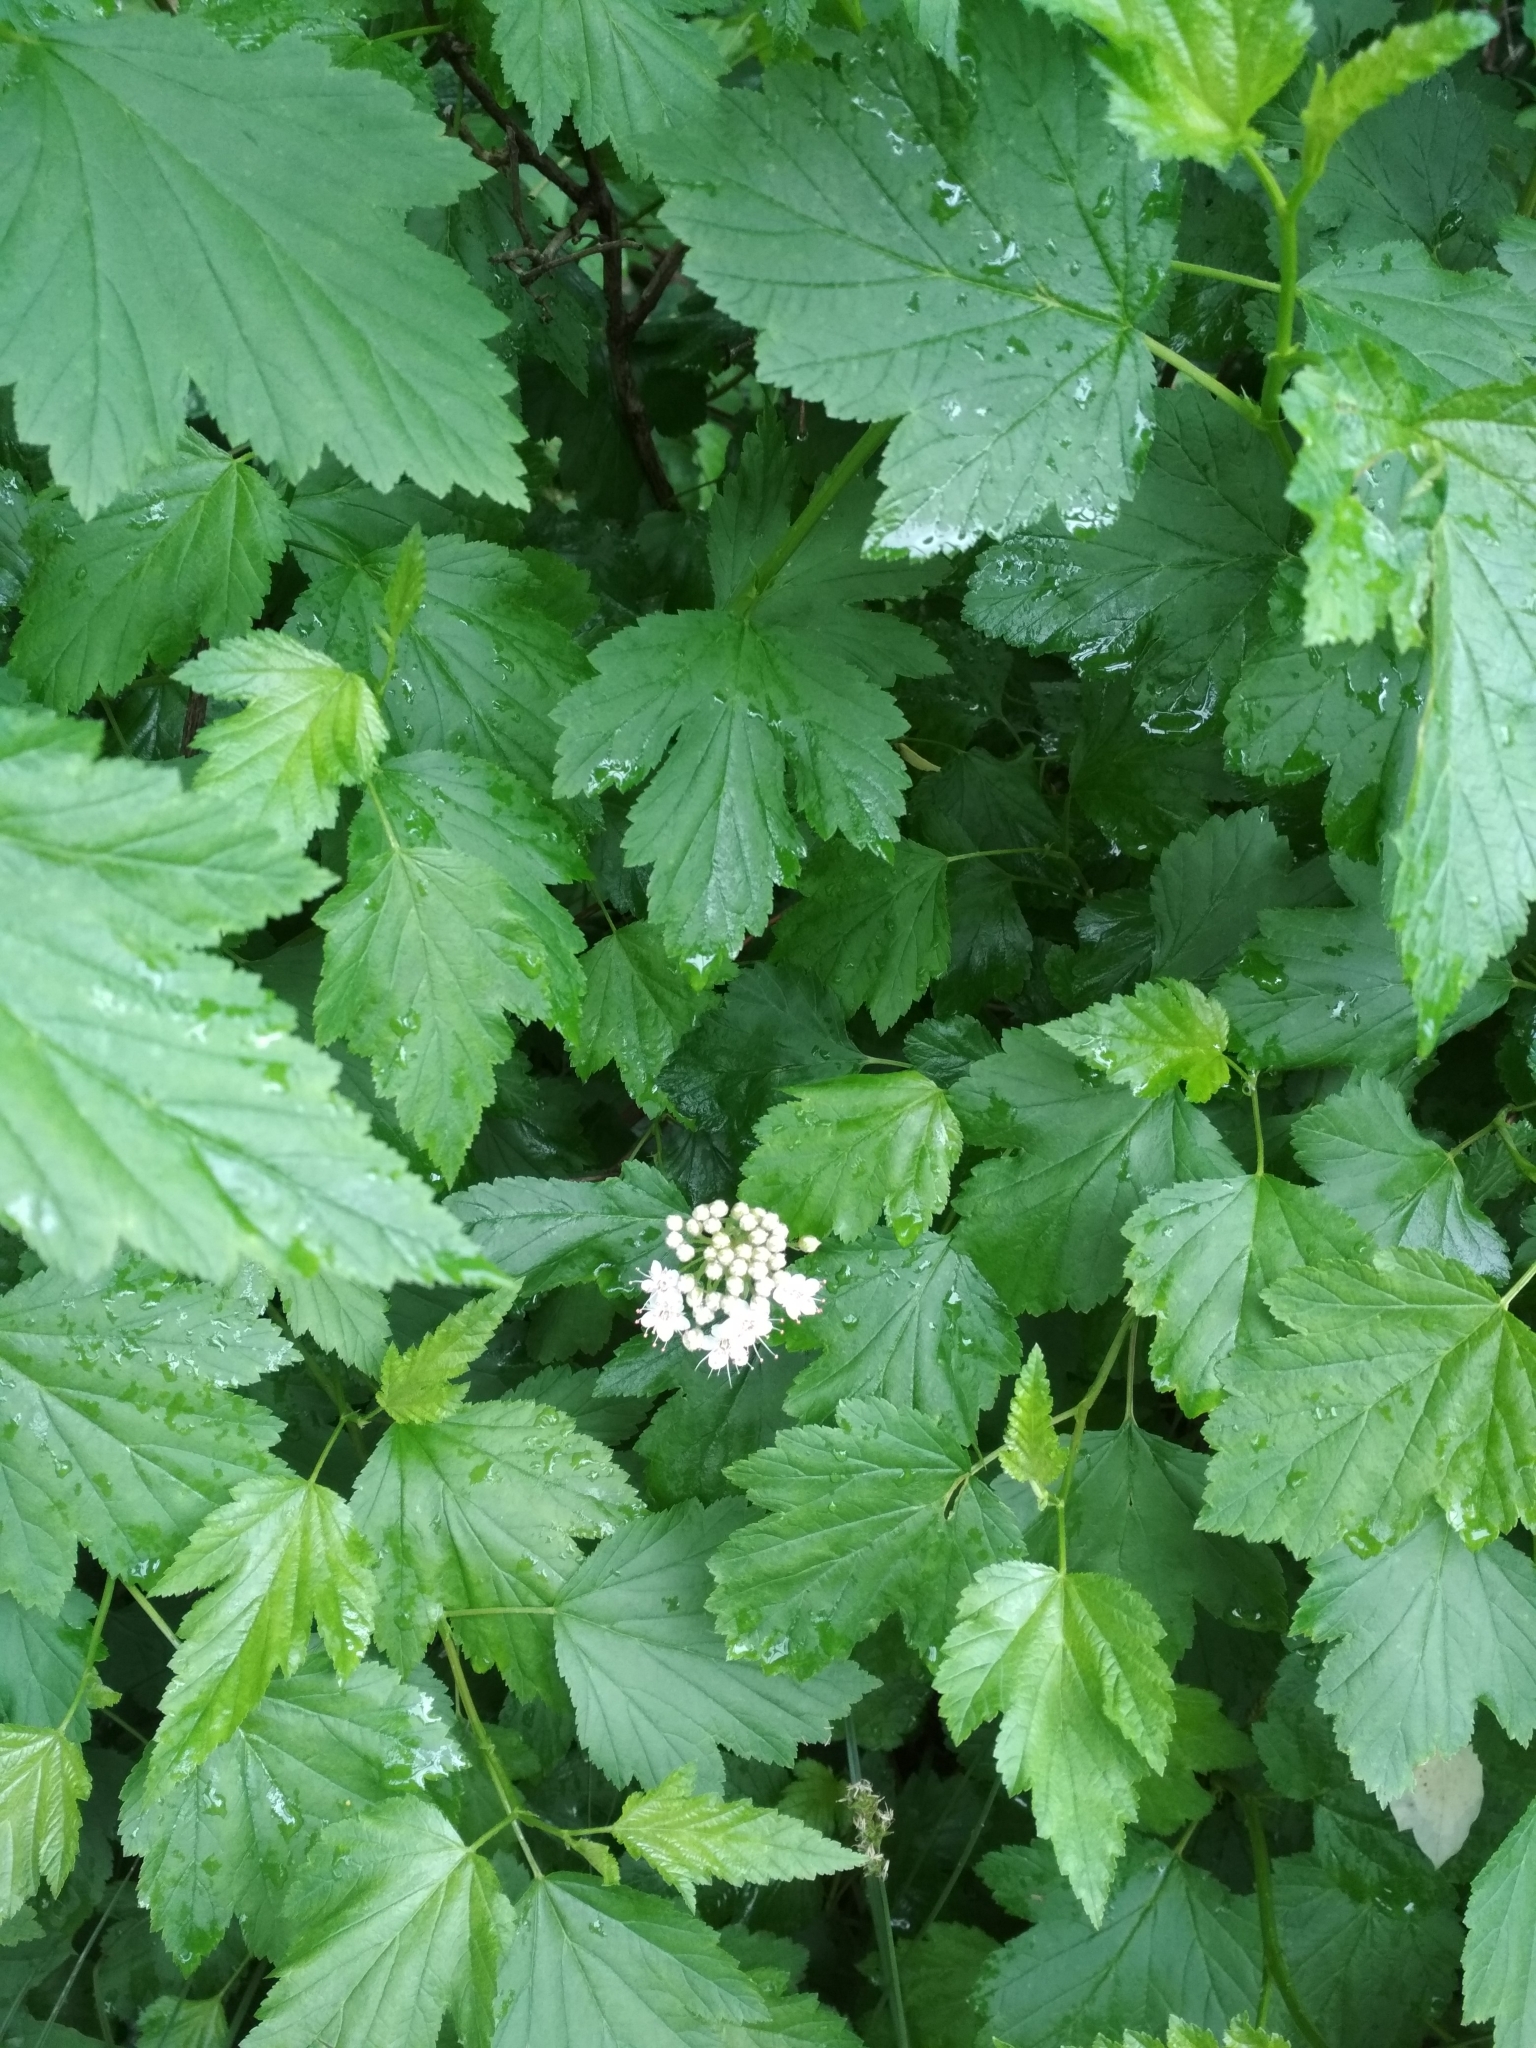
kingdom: Plantae
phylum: Tracheophyta
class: Magnoliopsida
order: Rosales
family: Rosaceae
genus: Physocarpus
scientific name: Physocarpus opulifolius
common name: Ninebark
